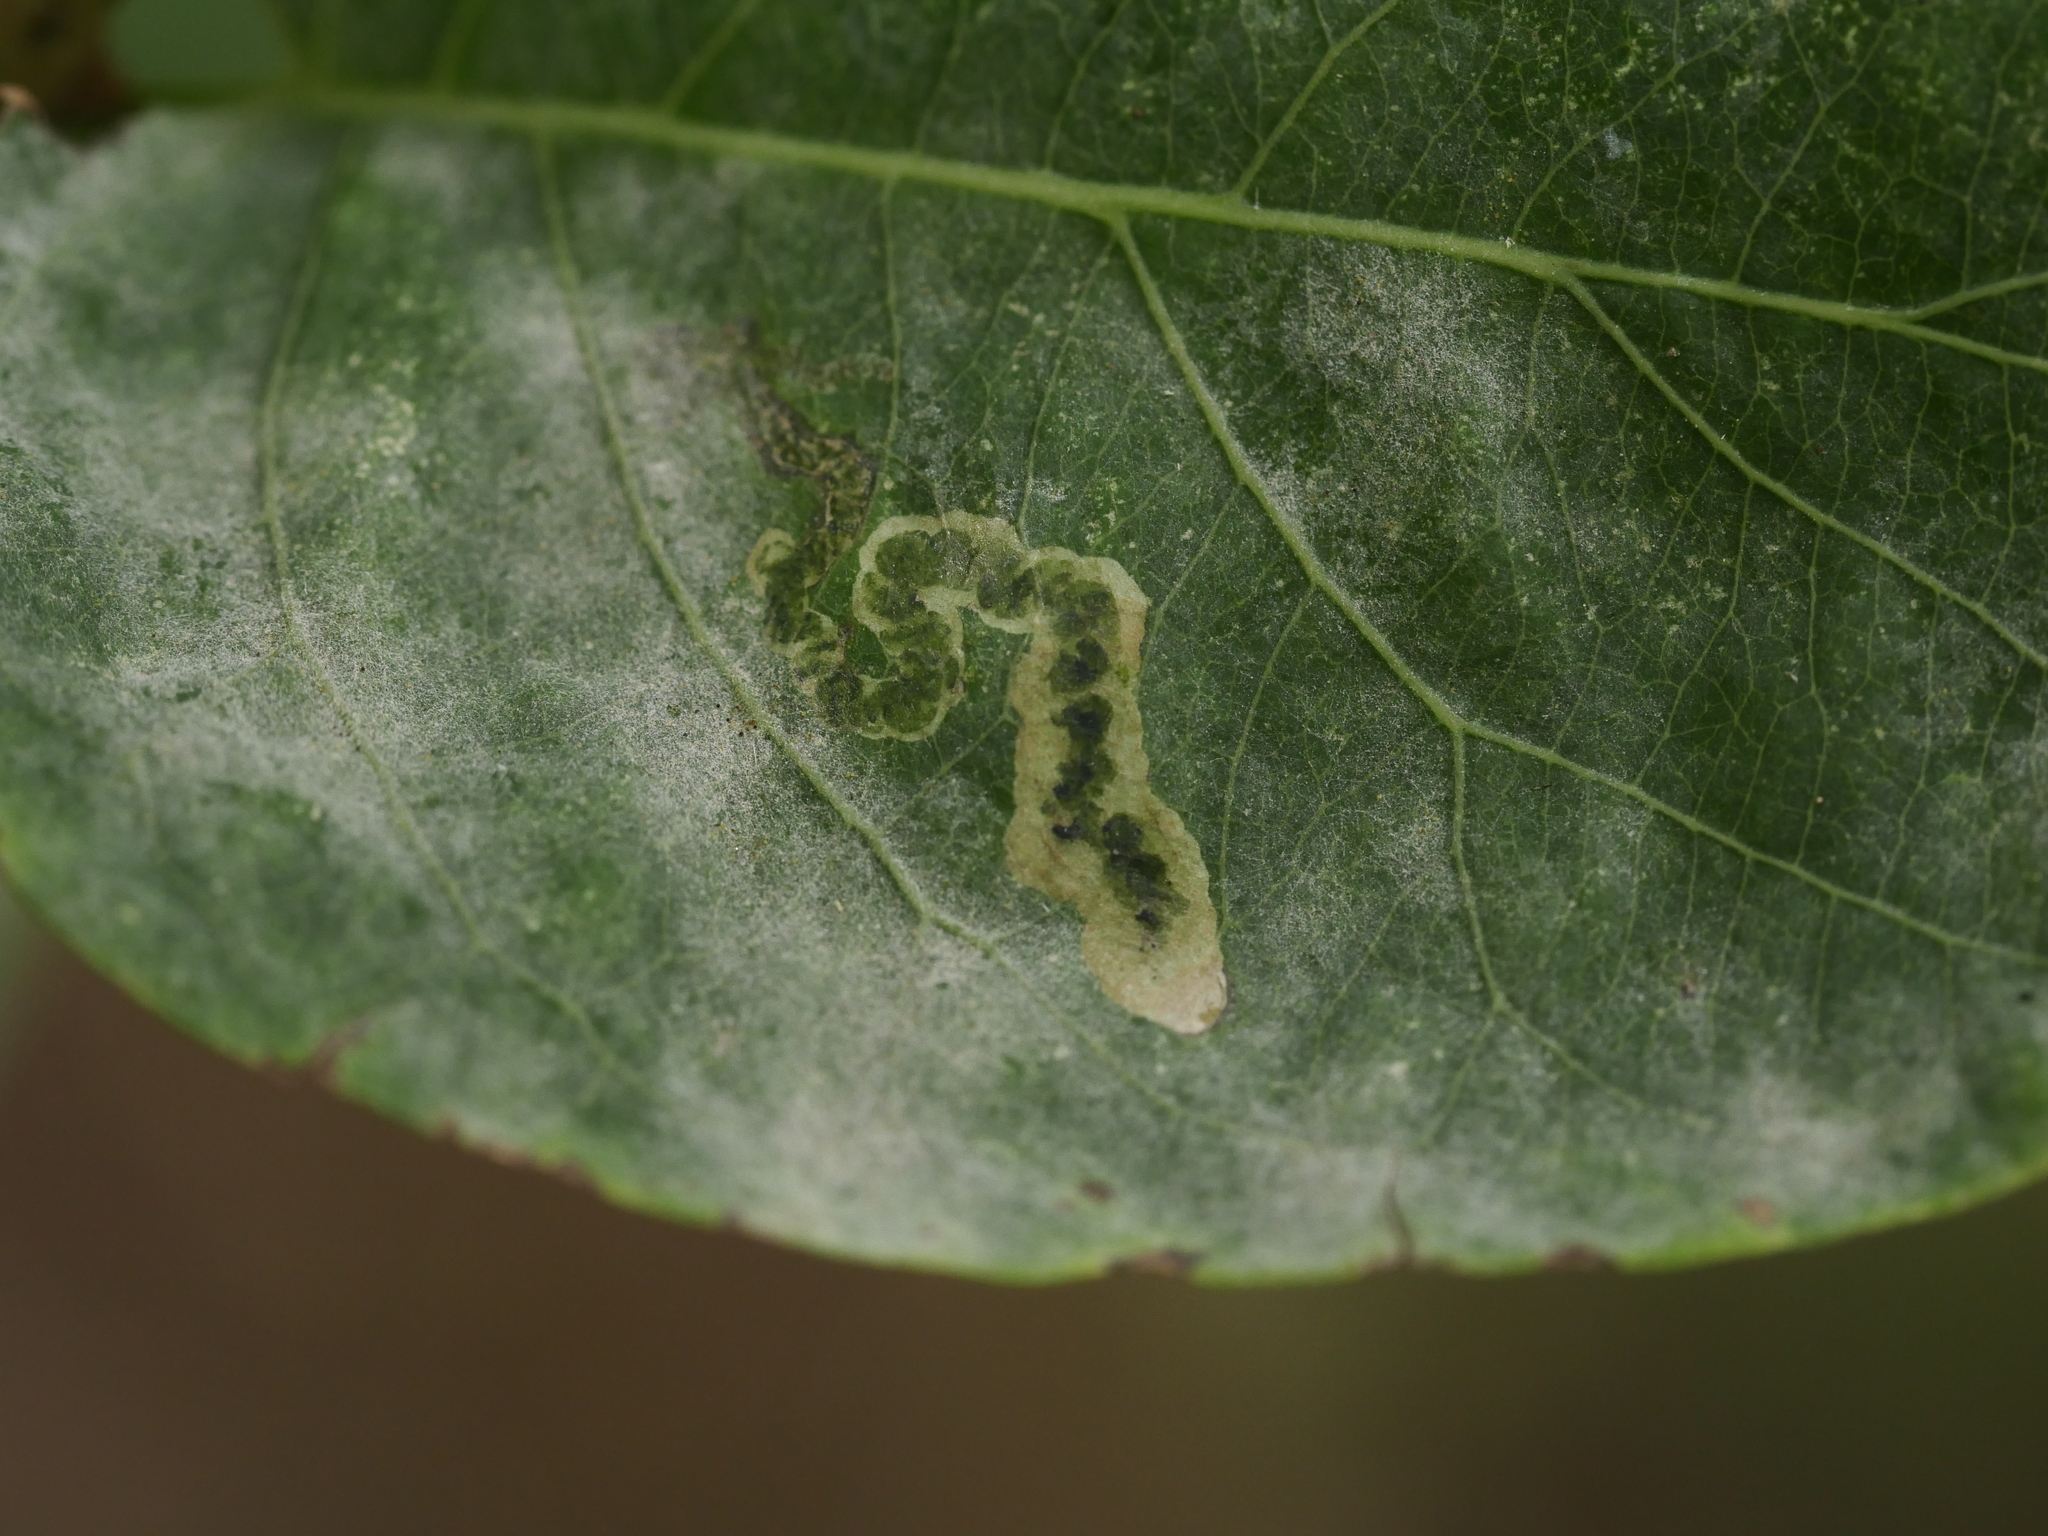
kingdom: Fungi
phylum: Ascomycota
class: Leotiomycetes
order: Helotiales
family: Erysiphaceae
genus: Erysiphe
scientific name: Erysiphe lonicerae
